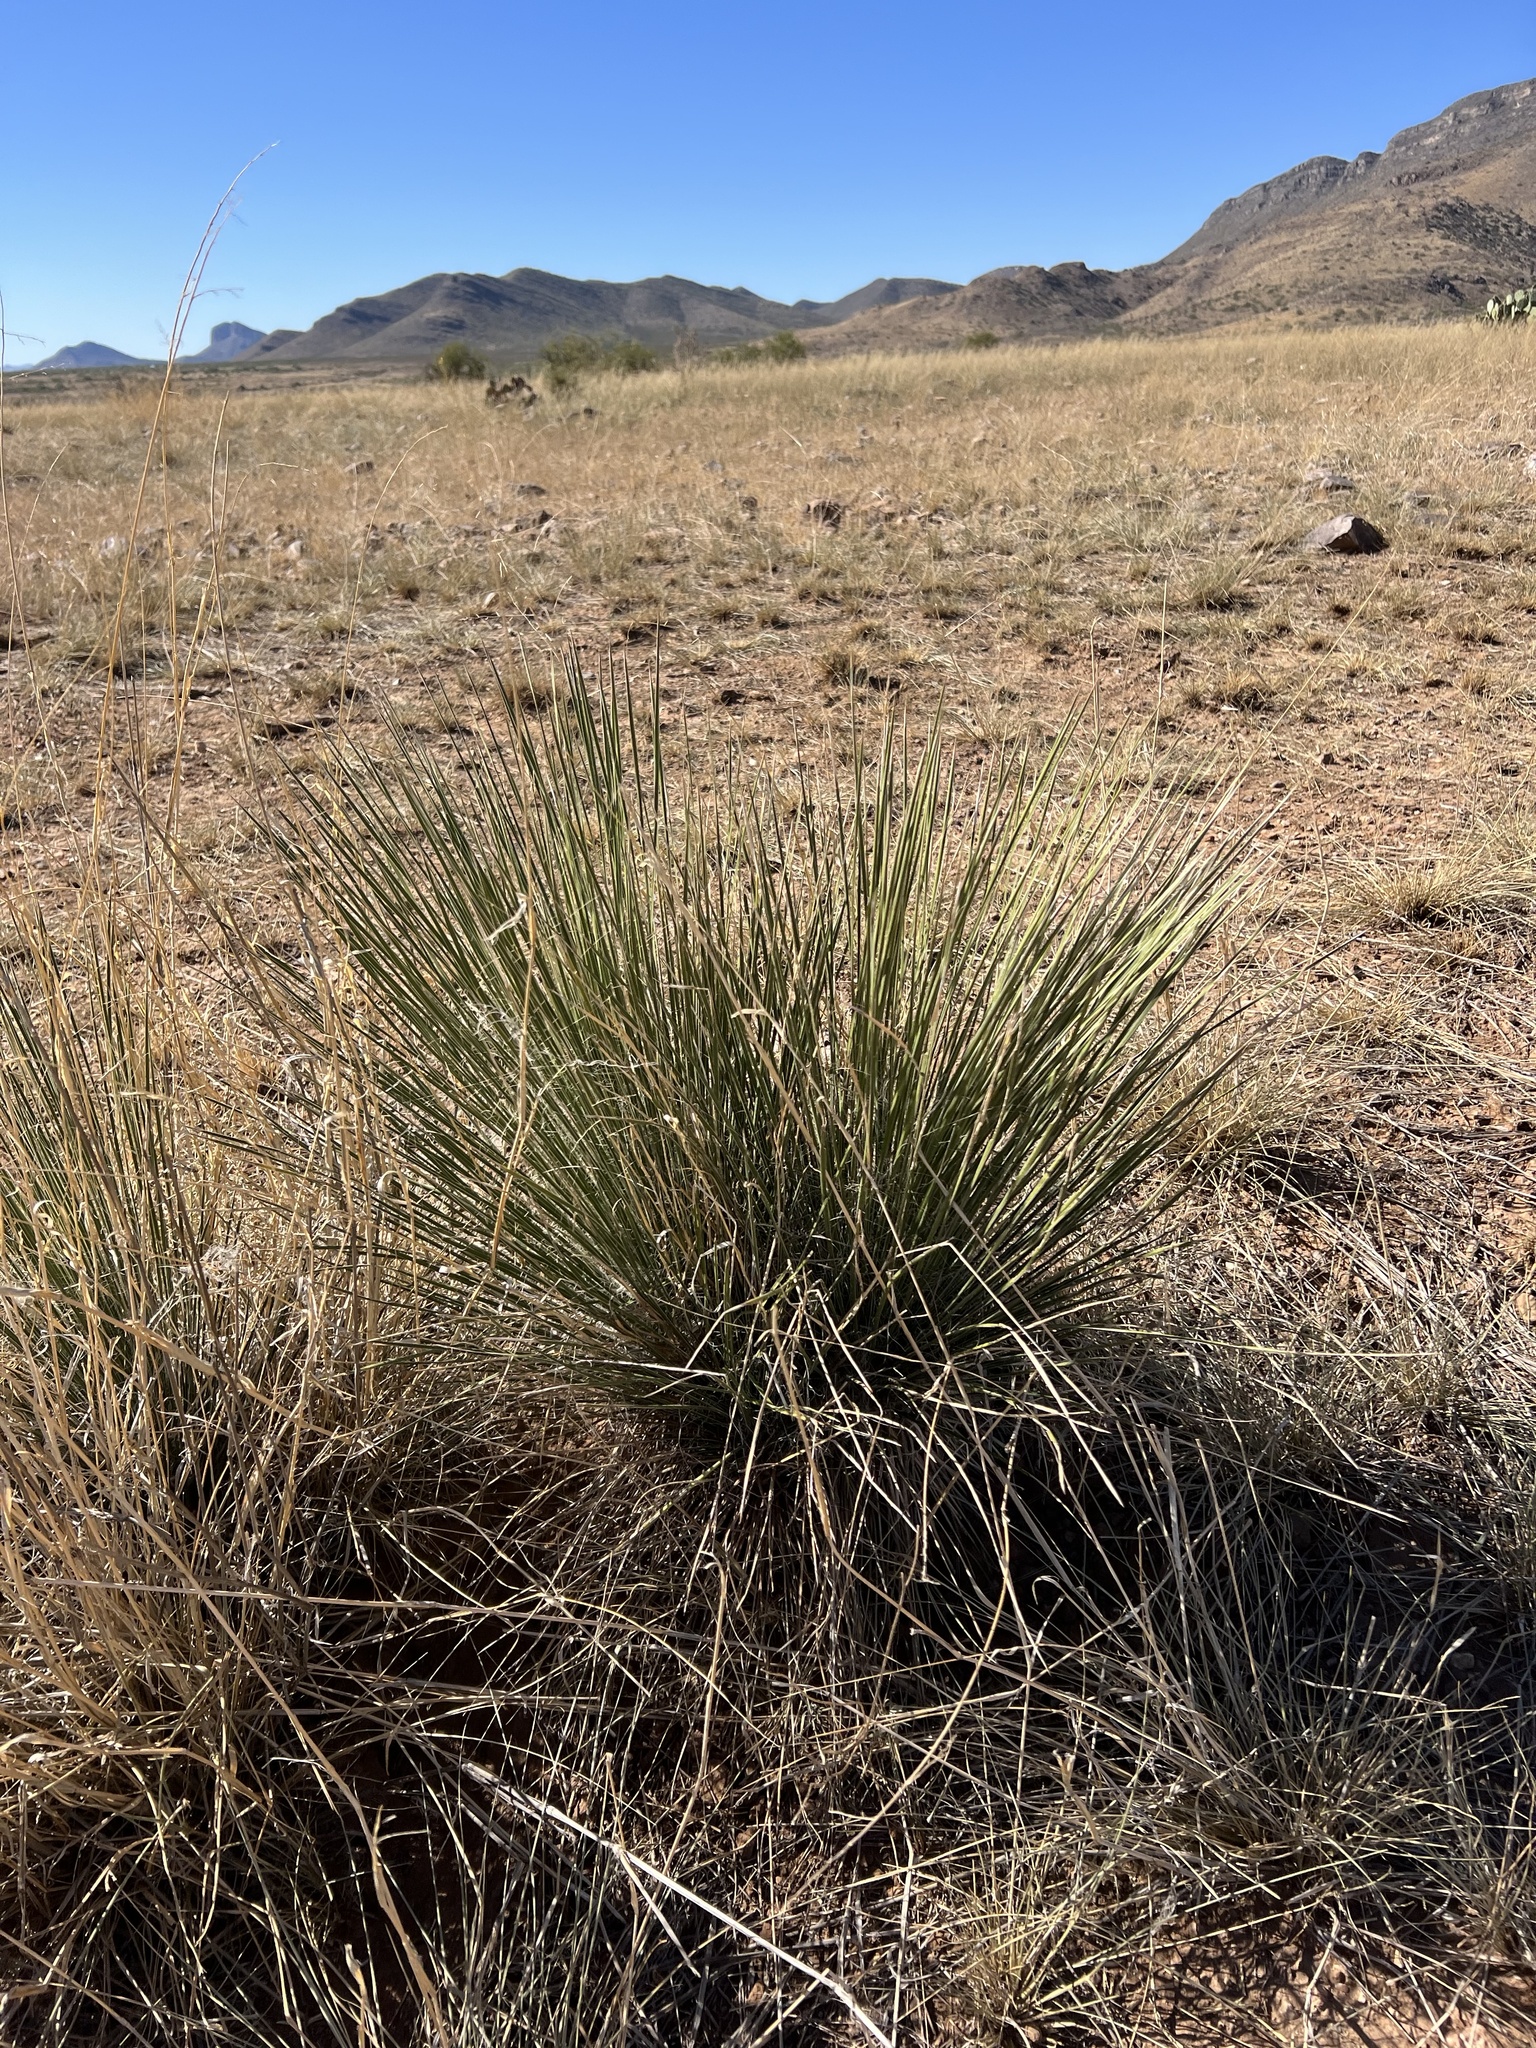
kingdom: Plantae
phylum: Tracheophyta
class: Liliopsida
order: Asparagales
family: Asparagaceae
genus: Yucca
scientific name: Yucca elata
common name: Palmella
